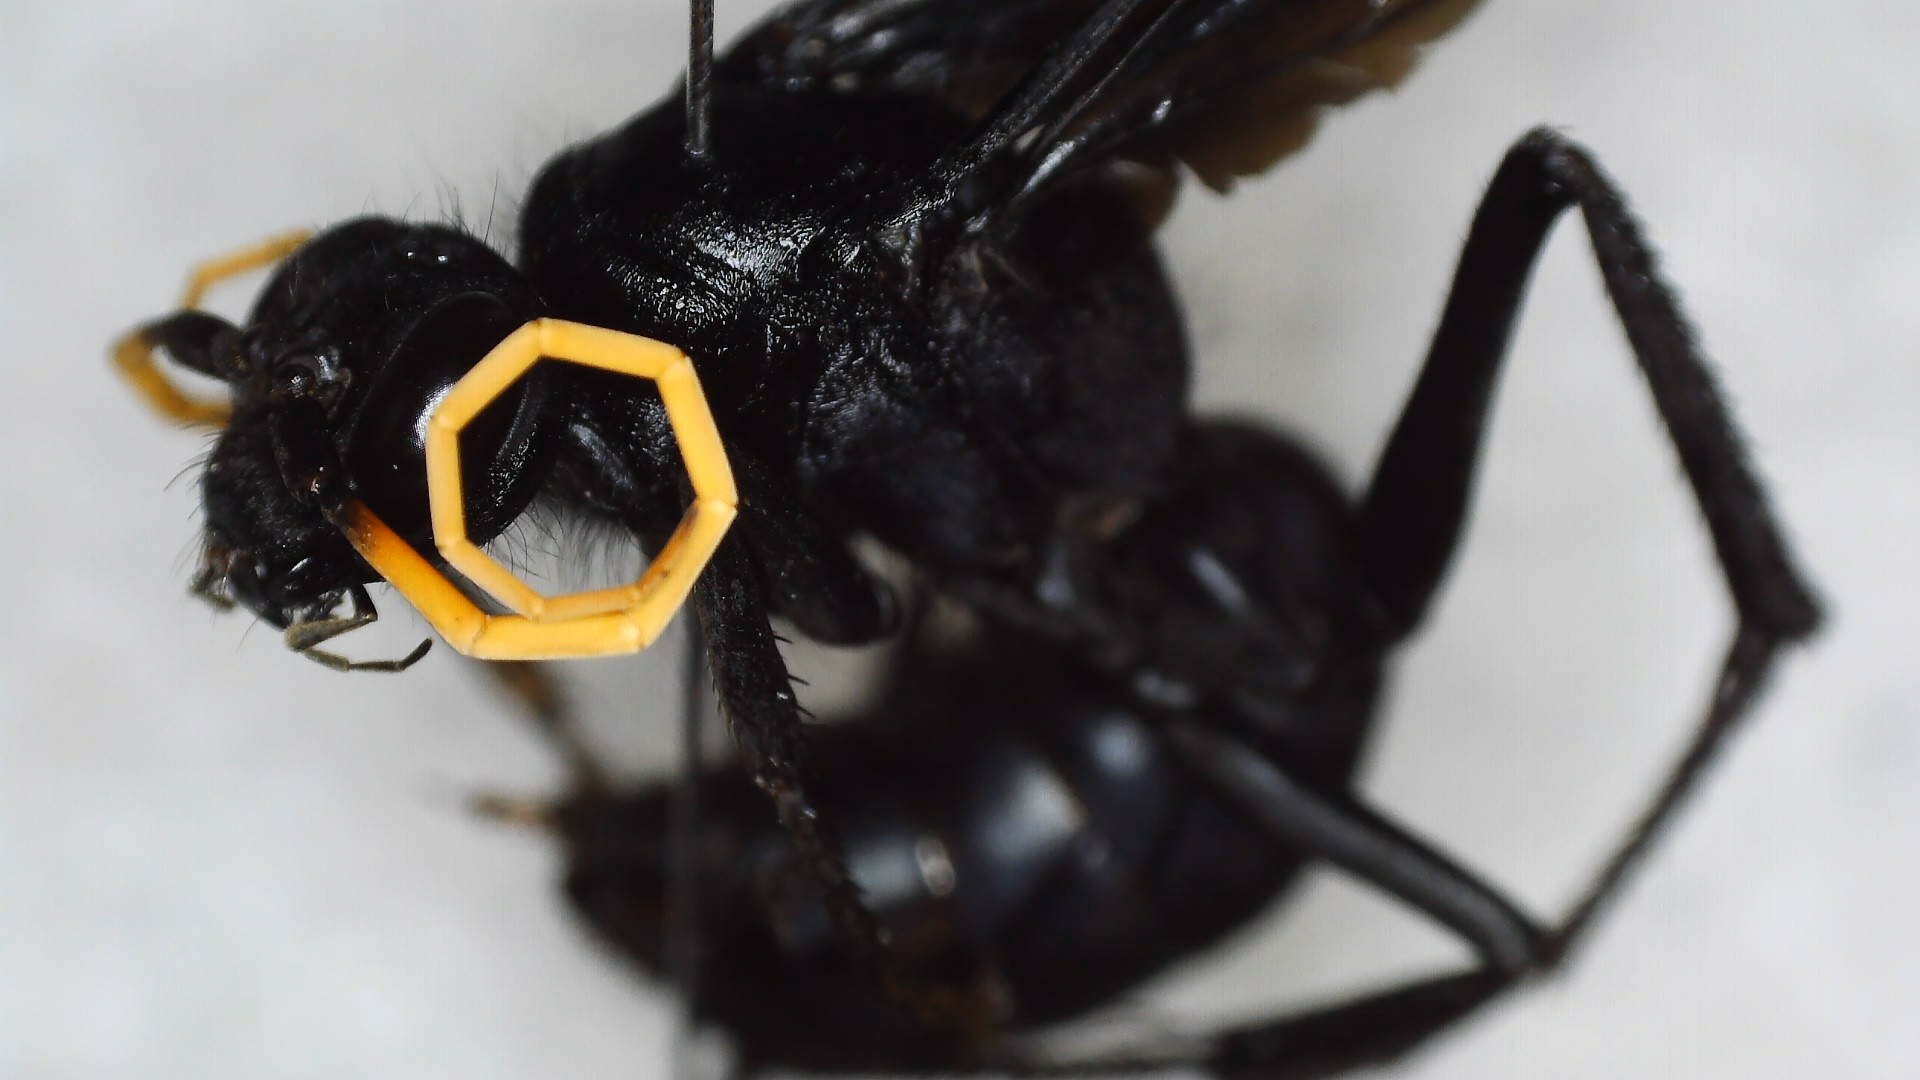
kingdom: Animalia
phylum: Arthropoda
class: Insecta
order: Hymenoptera
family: Pompilidae
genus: Entypus
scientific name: Entypus unifasciatus
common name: Eastern tawny-horned spider wasp
